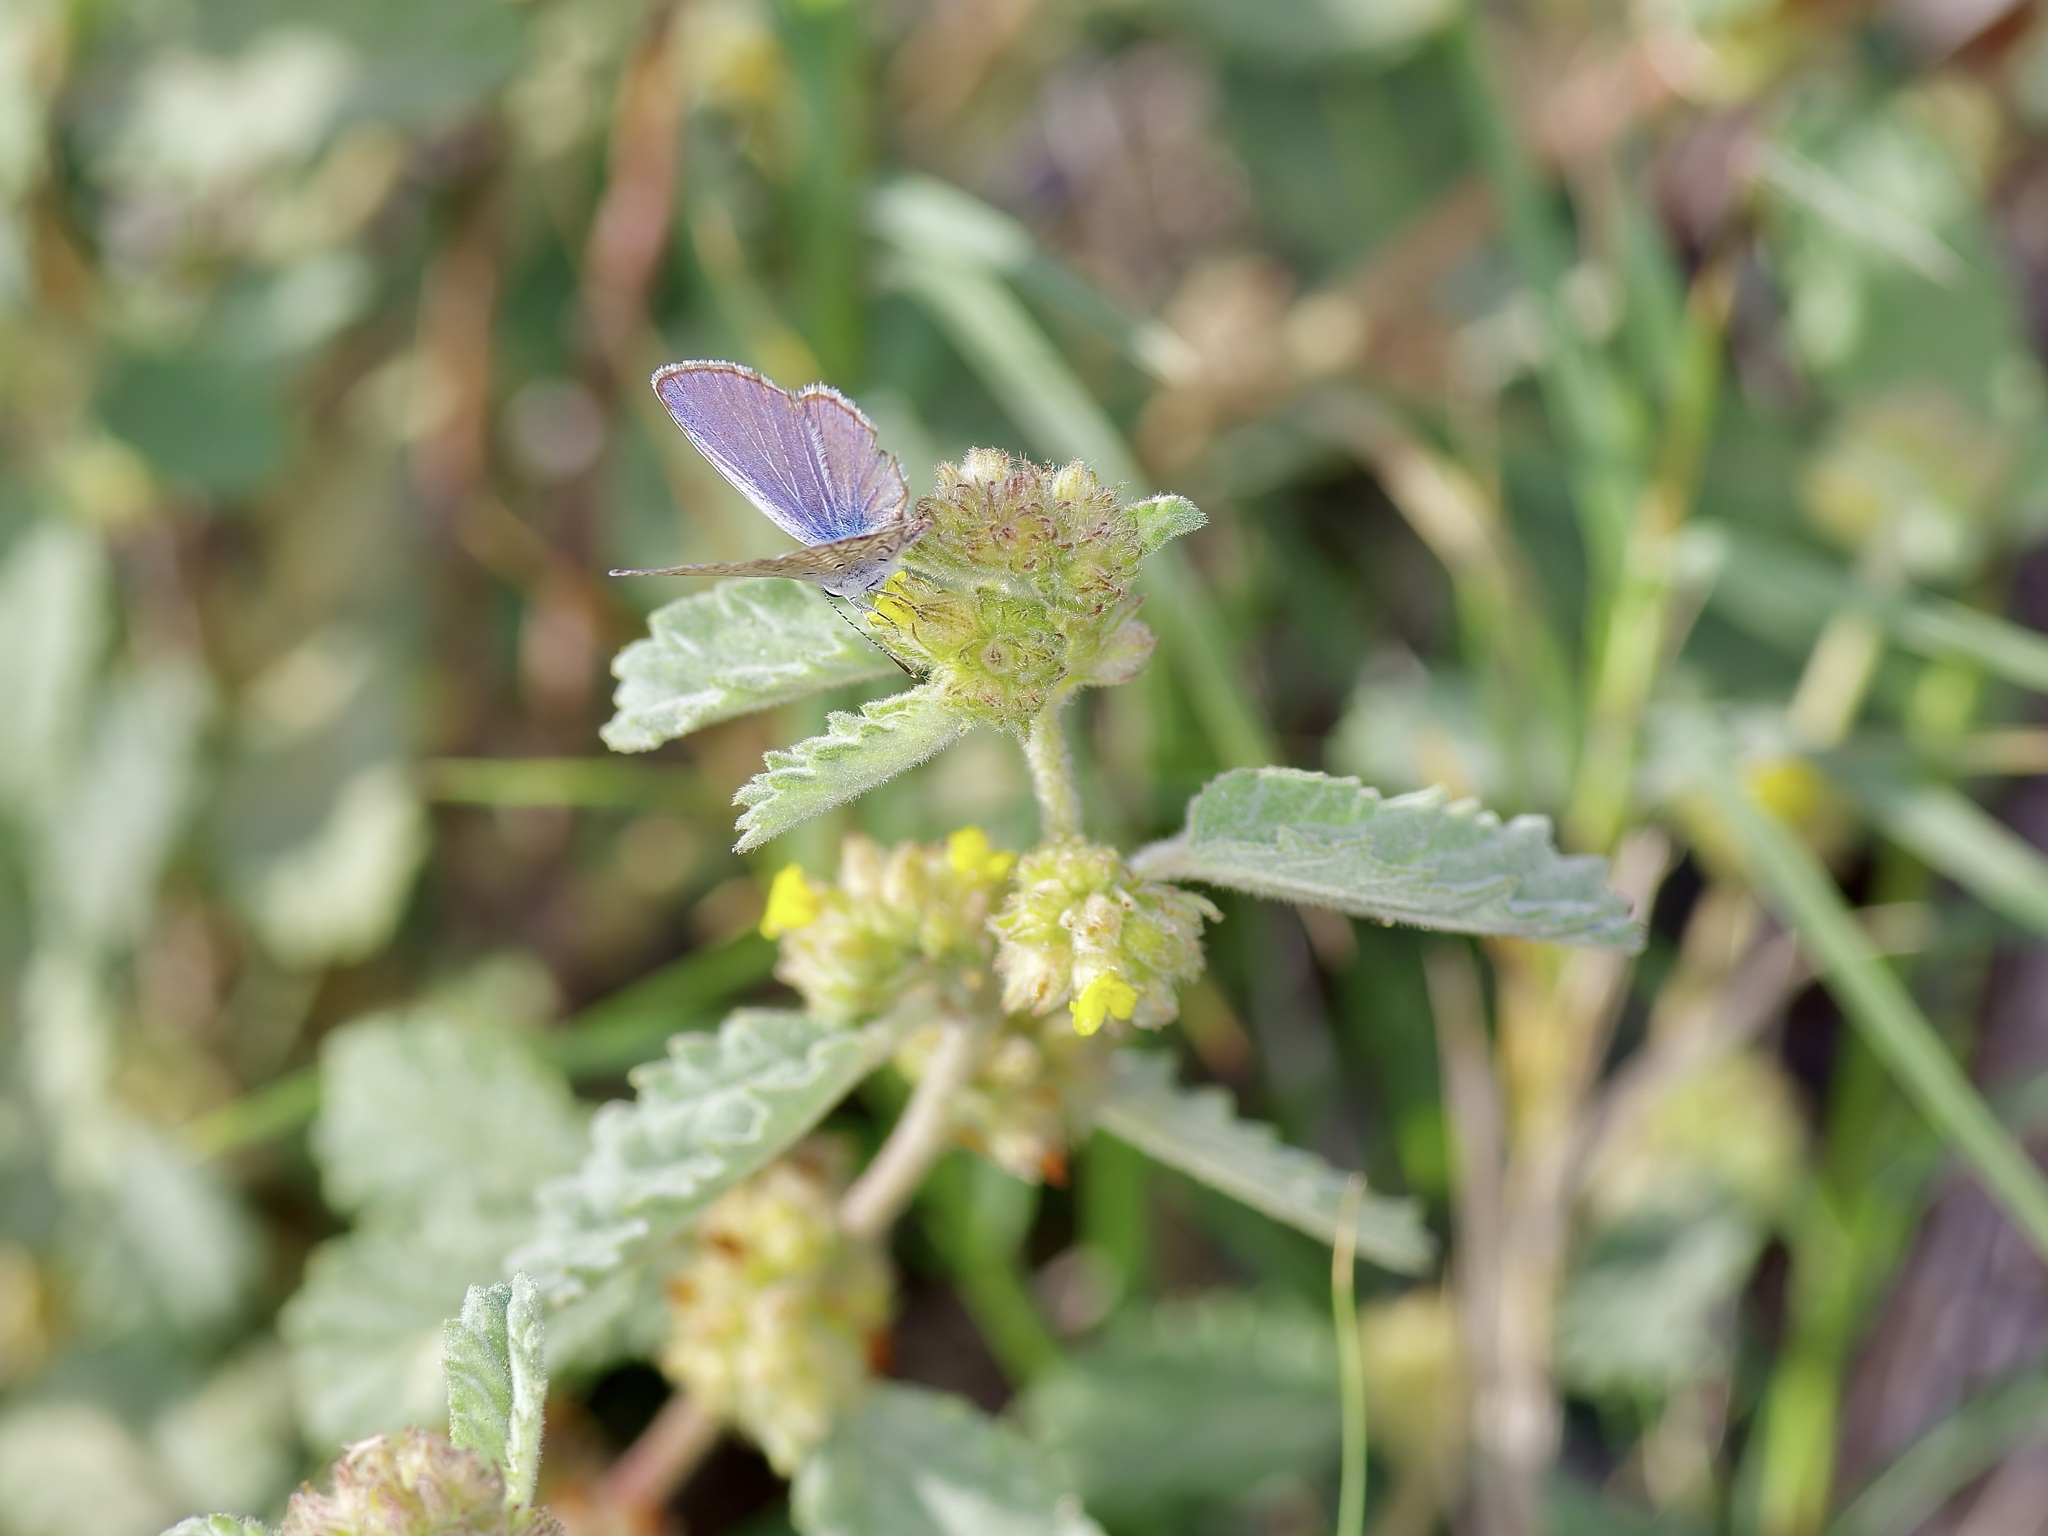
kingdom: Plantae
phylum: Tracheophyta
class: Magnoliopsida
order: Malvales
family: Malvaceae
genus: Waltheria
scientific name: Waltheria indica
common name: Leather-coat
